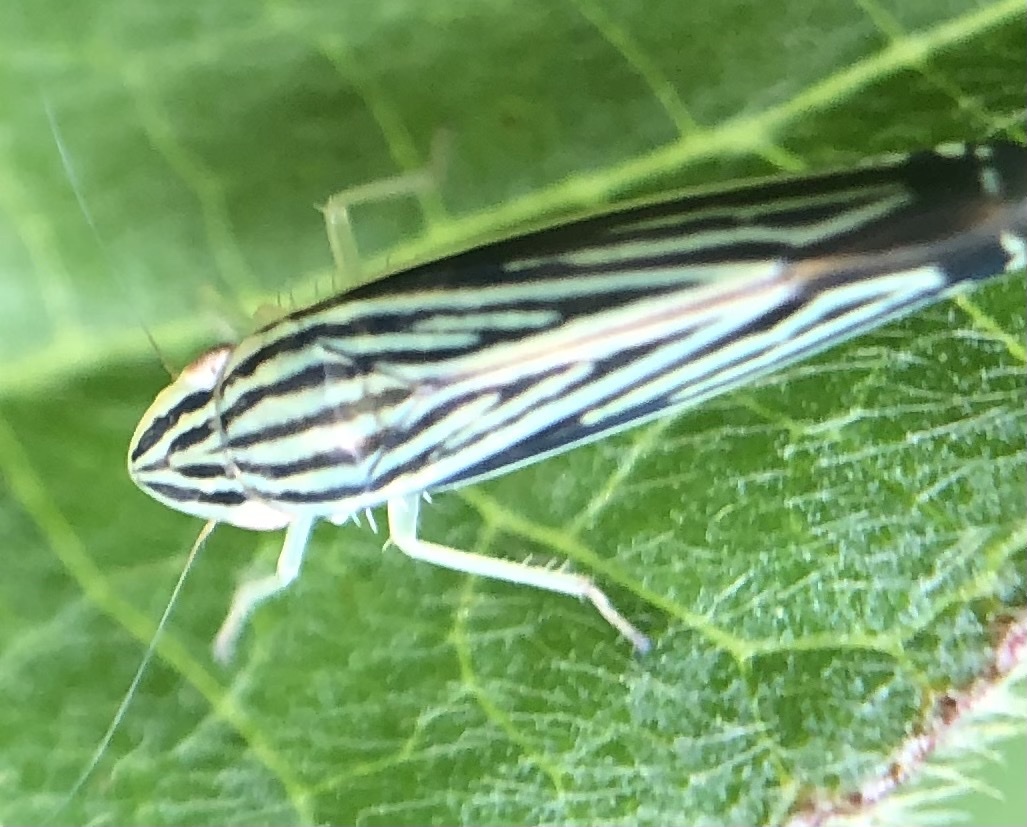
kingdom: Animalia
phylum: Arthropoda
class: Insecta
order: Hemiptera
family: Cicadellidae
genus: Sibovia
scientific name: Sibovia occatoria
